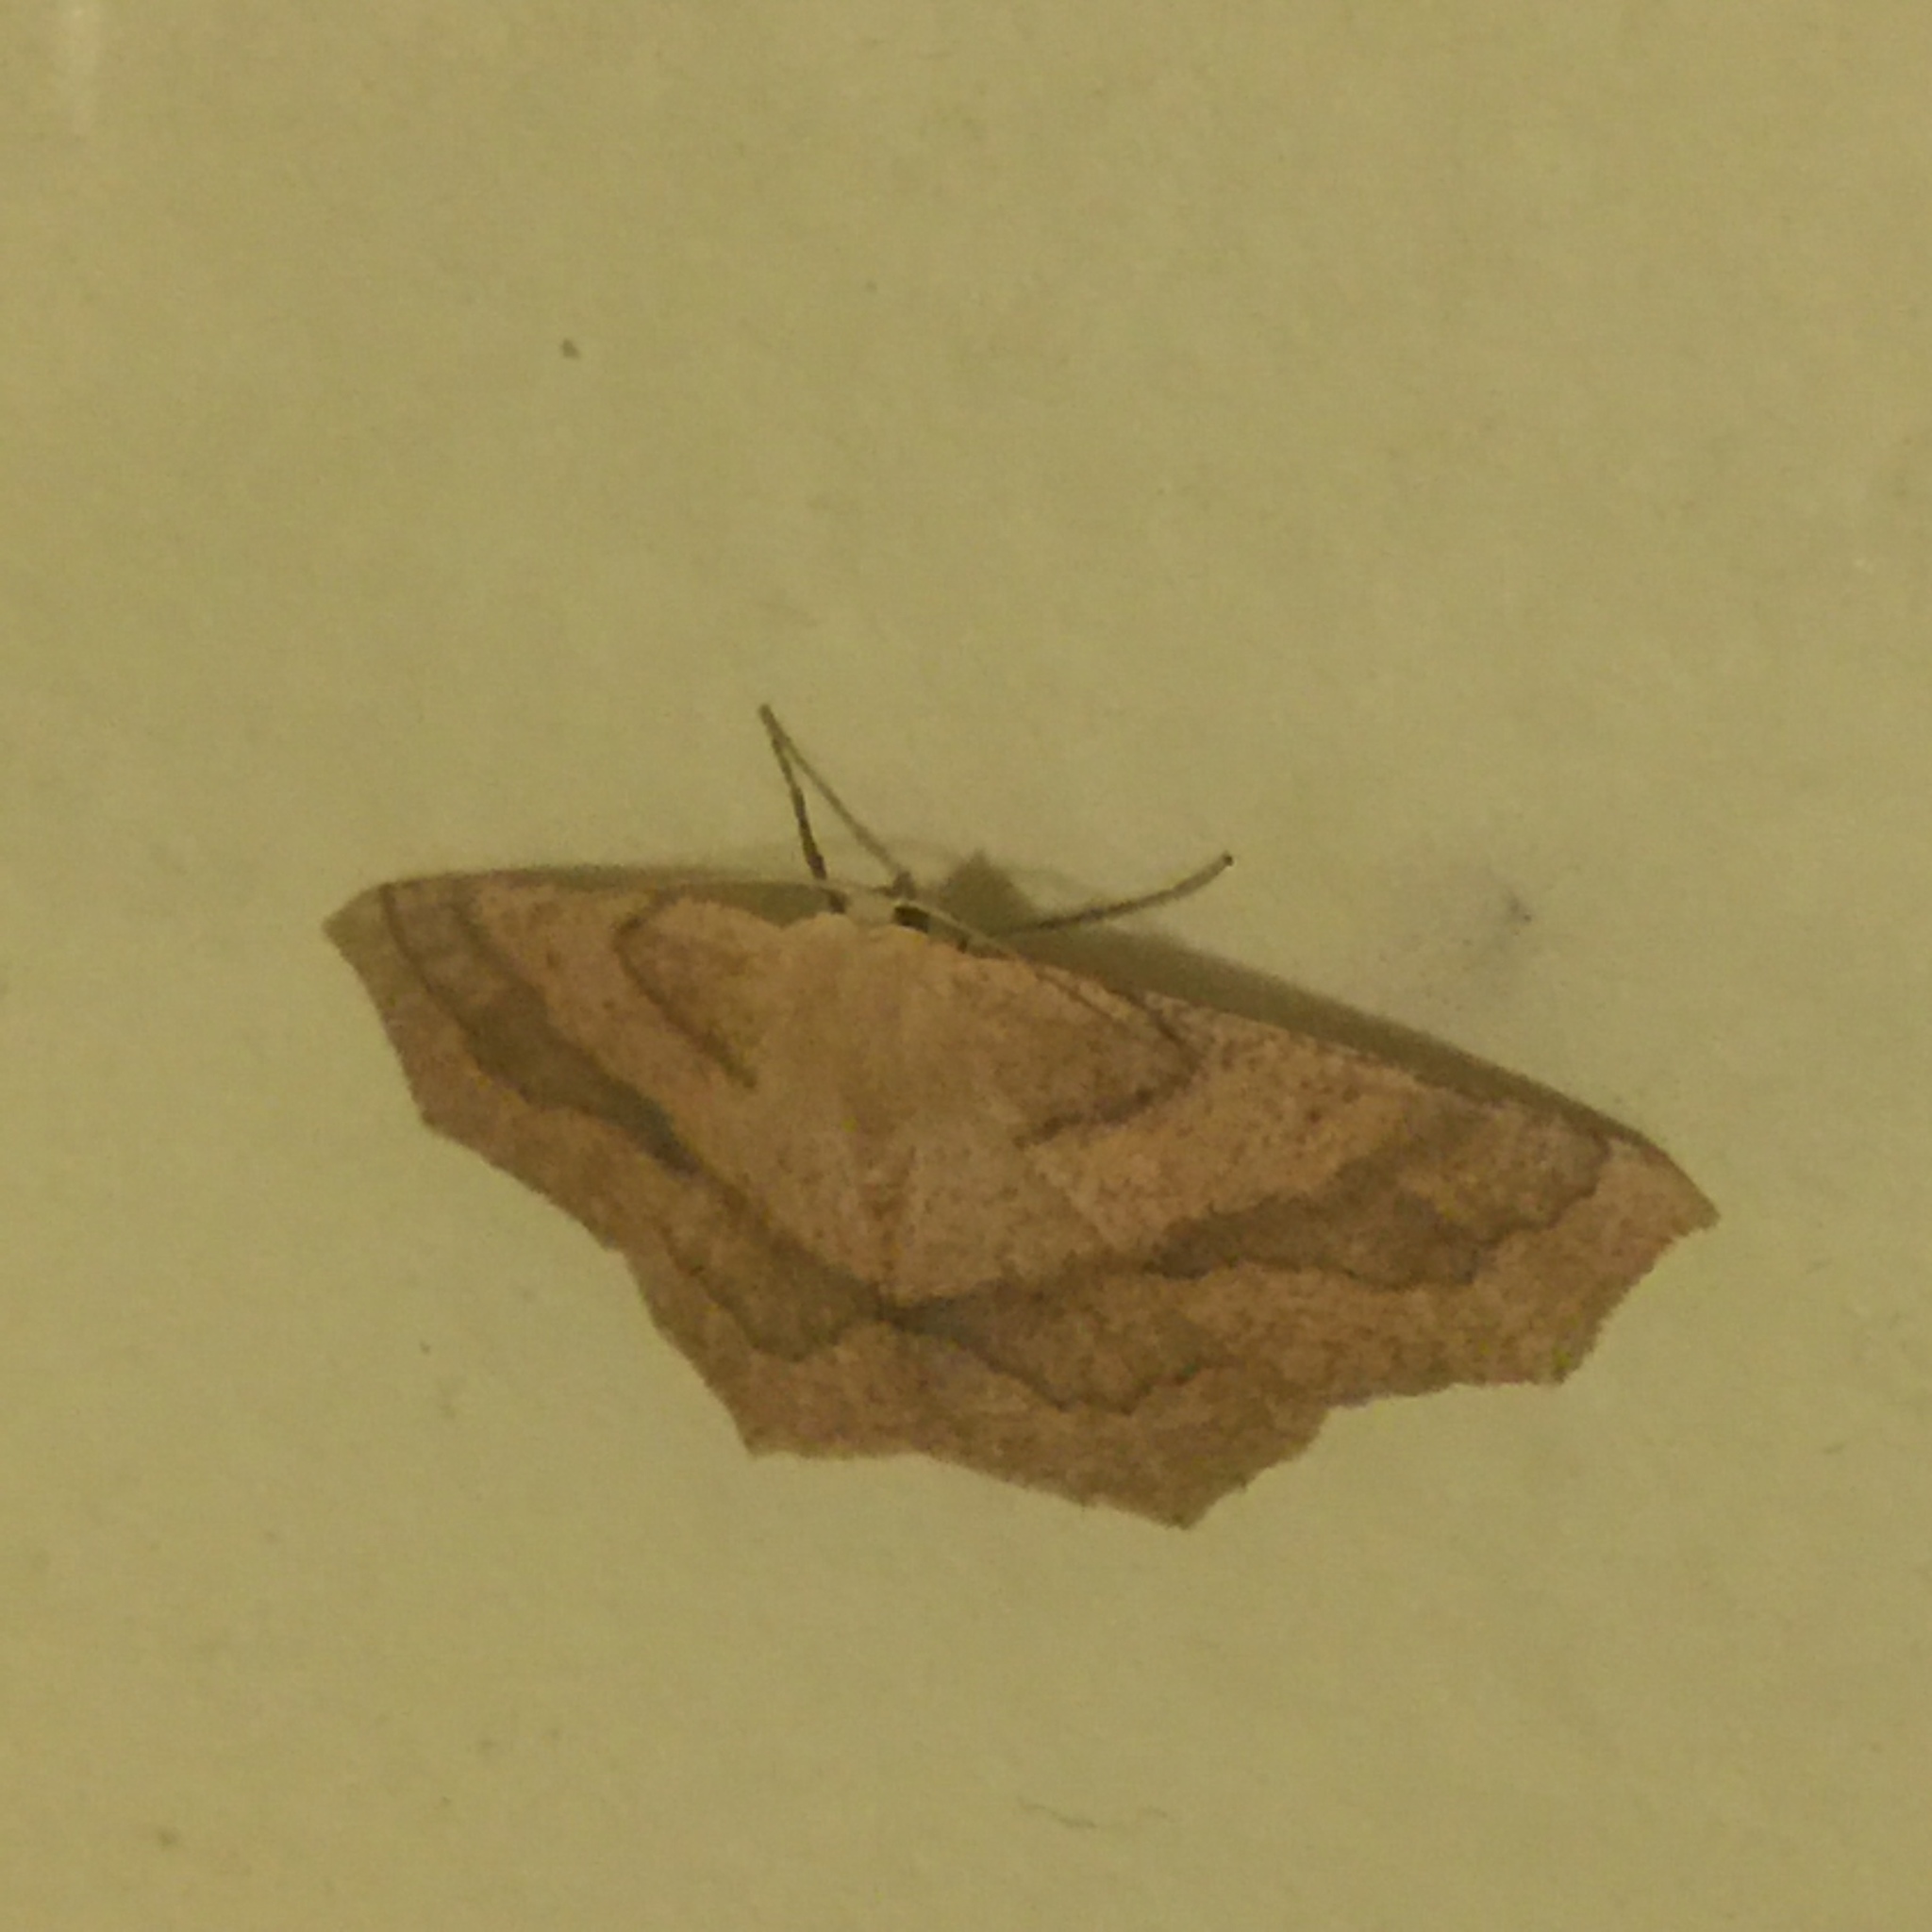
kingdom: Animalia
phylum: Arthropoda
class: Insecta
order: Lepidoptera
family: Geometridae
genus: Sabulodes
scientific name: Sabulodes aegrotata
